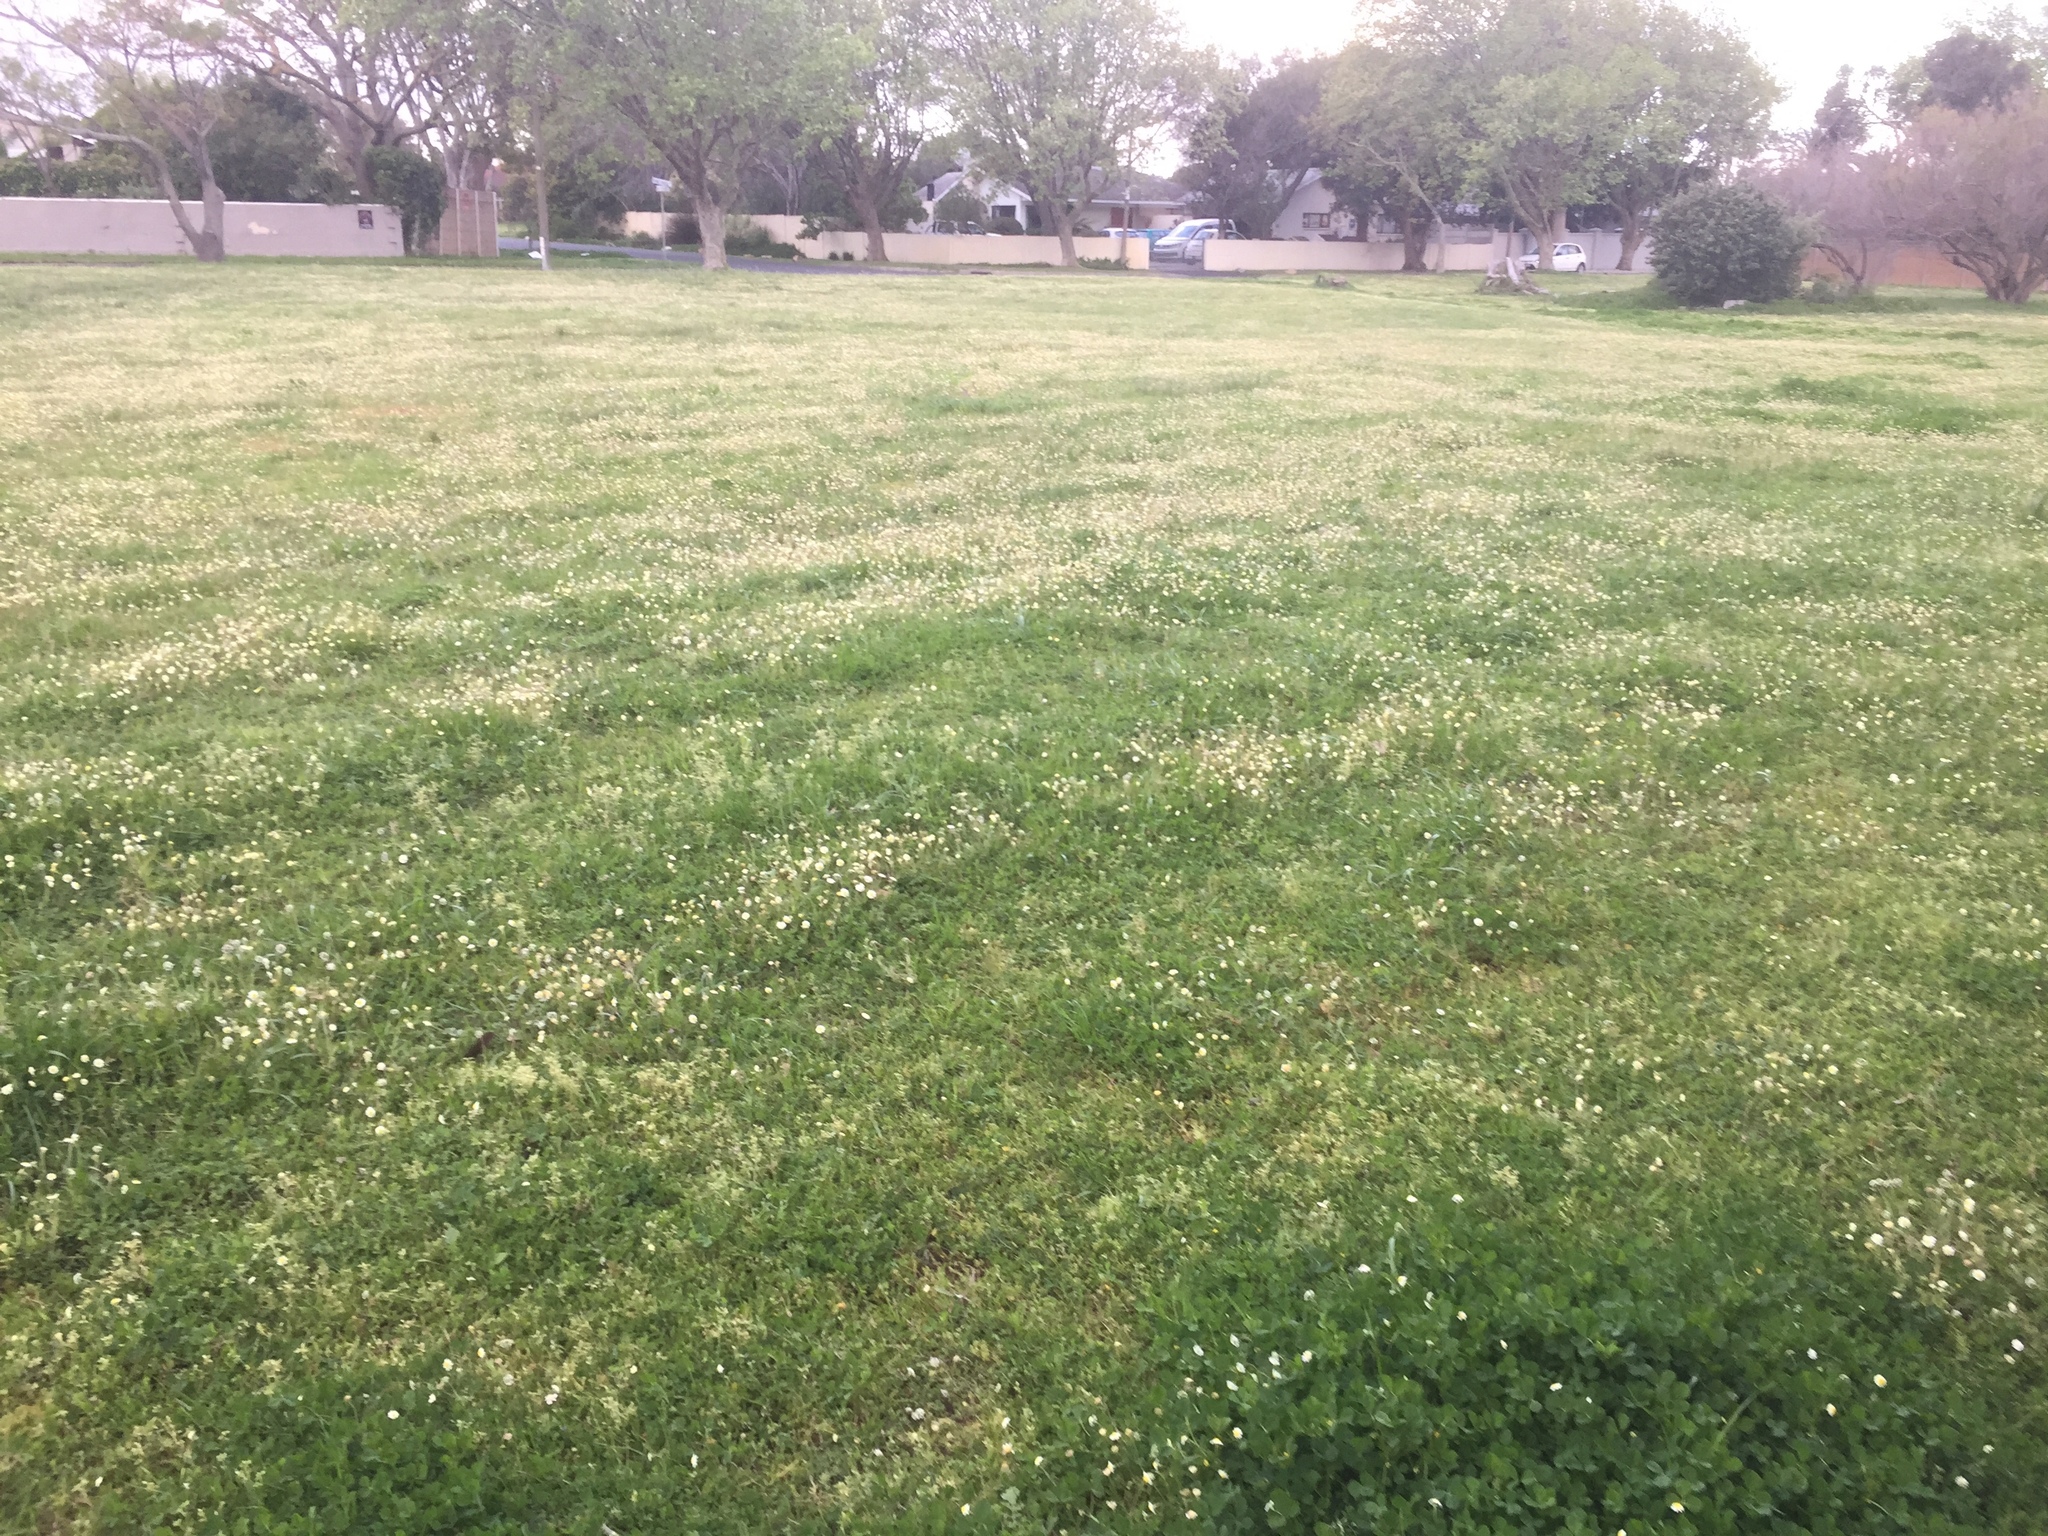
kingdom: Plantae
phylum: Tracheophyta
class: Magnoliopsida
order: Asterales
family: Asteraceae
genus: Cotula
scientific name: Cotula turbinata
